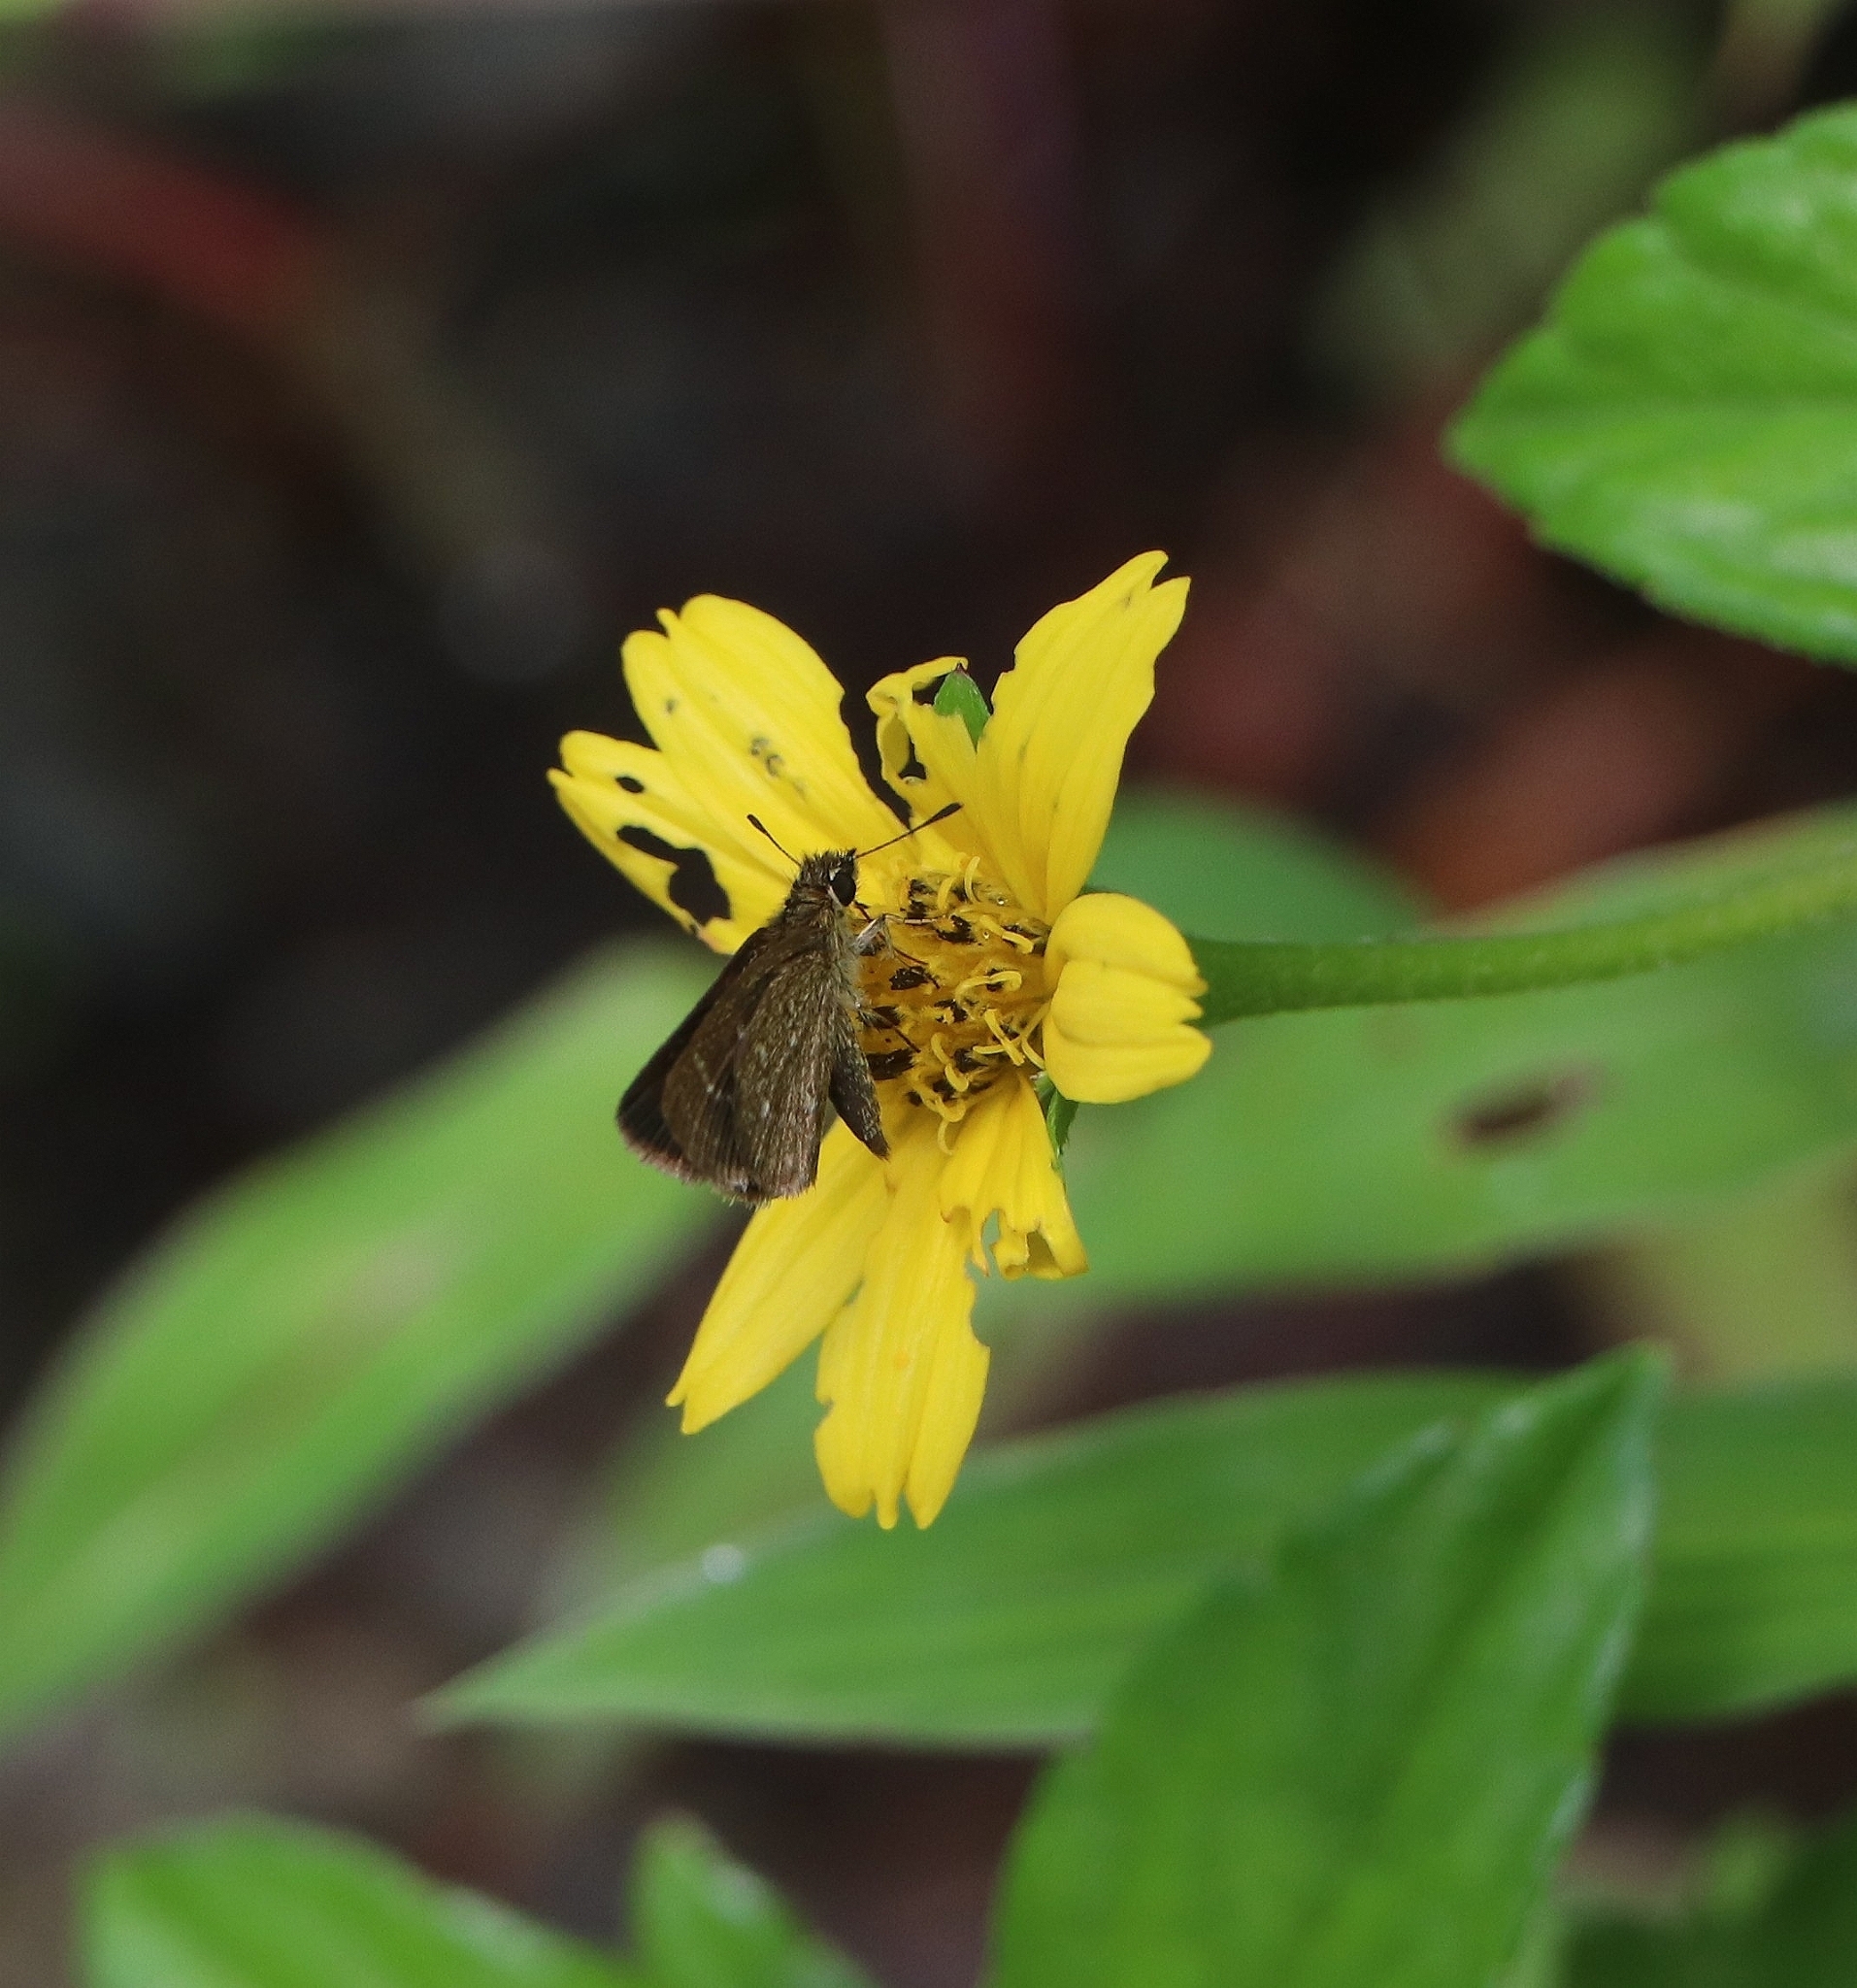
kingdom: Animalia
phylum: Arthropoda
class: Insecta
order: Lepidoptera
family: Hesperiidae
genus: Aeromachus
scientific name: Aeromachus pygmaeus
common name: Pygmy scrub hopper
